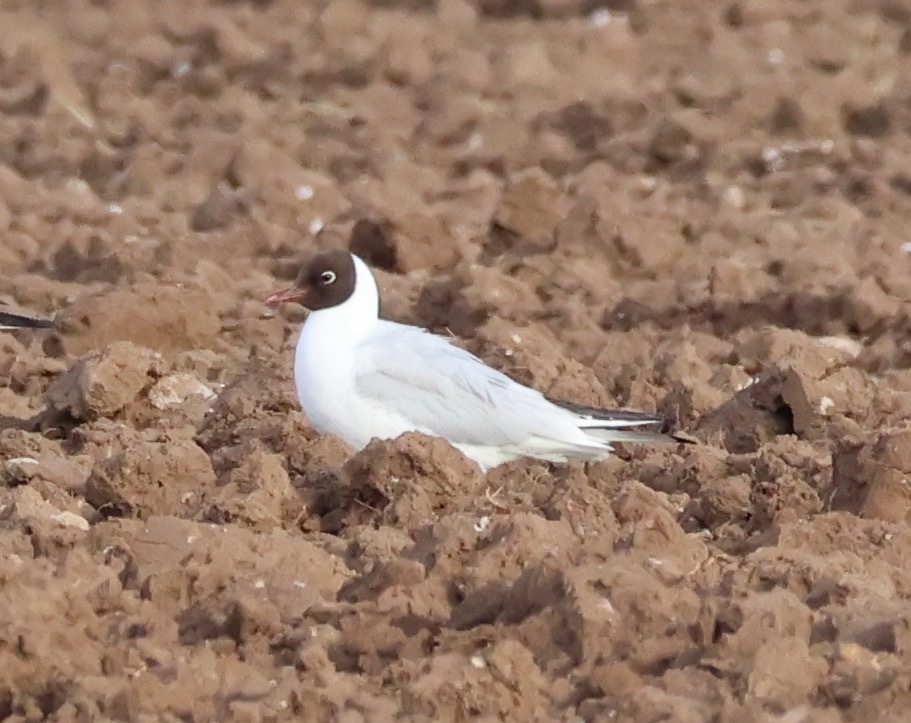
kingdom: Animalia
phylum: Chordata
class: Aves
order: Charadriiformes
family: Laridae
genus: Chroicocephalus
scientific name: Chroicocephalus ridibundus
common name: Black-headed gull
